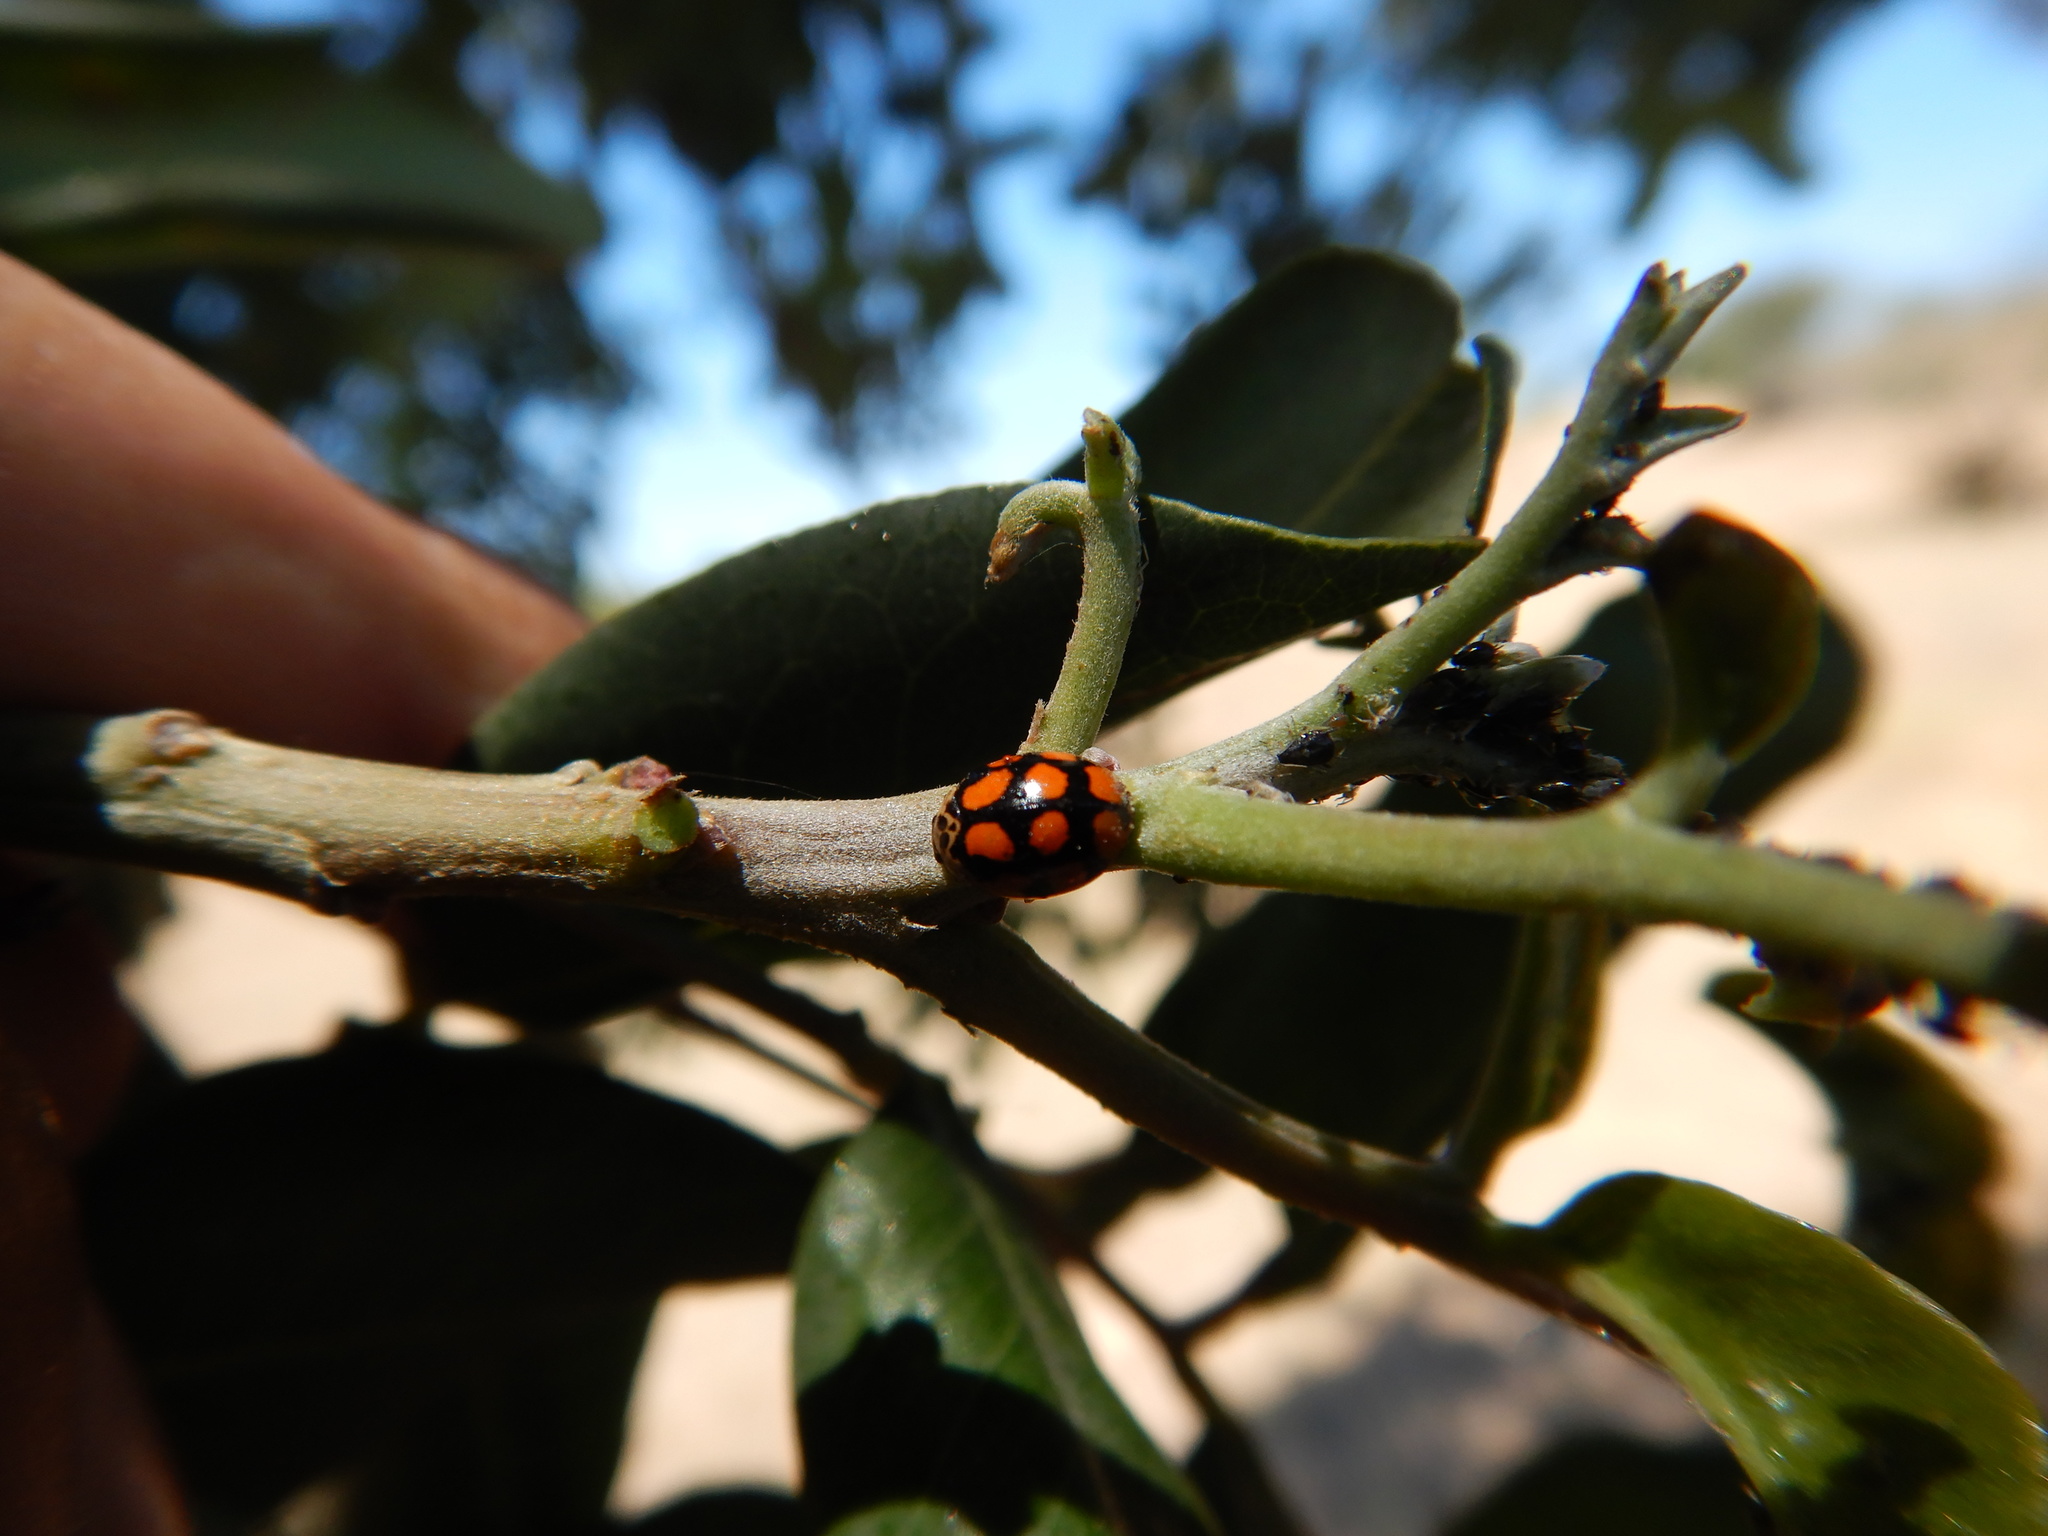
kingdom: Animalia
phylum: Arthropoda
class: Insecta
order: Coleoptera
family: Coccinellidae
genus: Adalia
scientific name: Adalia decempunctata
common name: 10-spot ladybird
